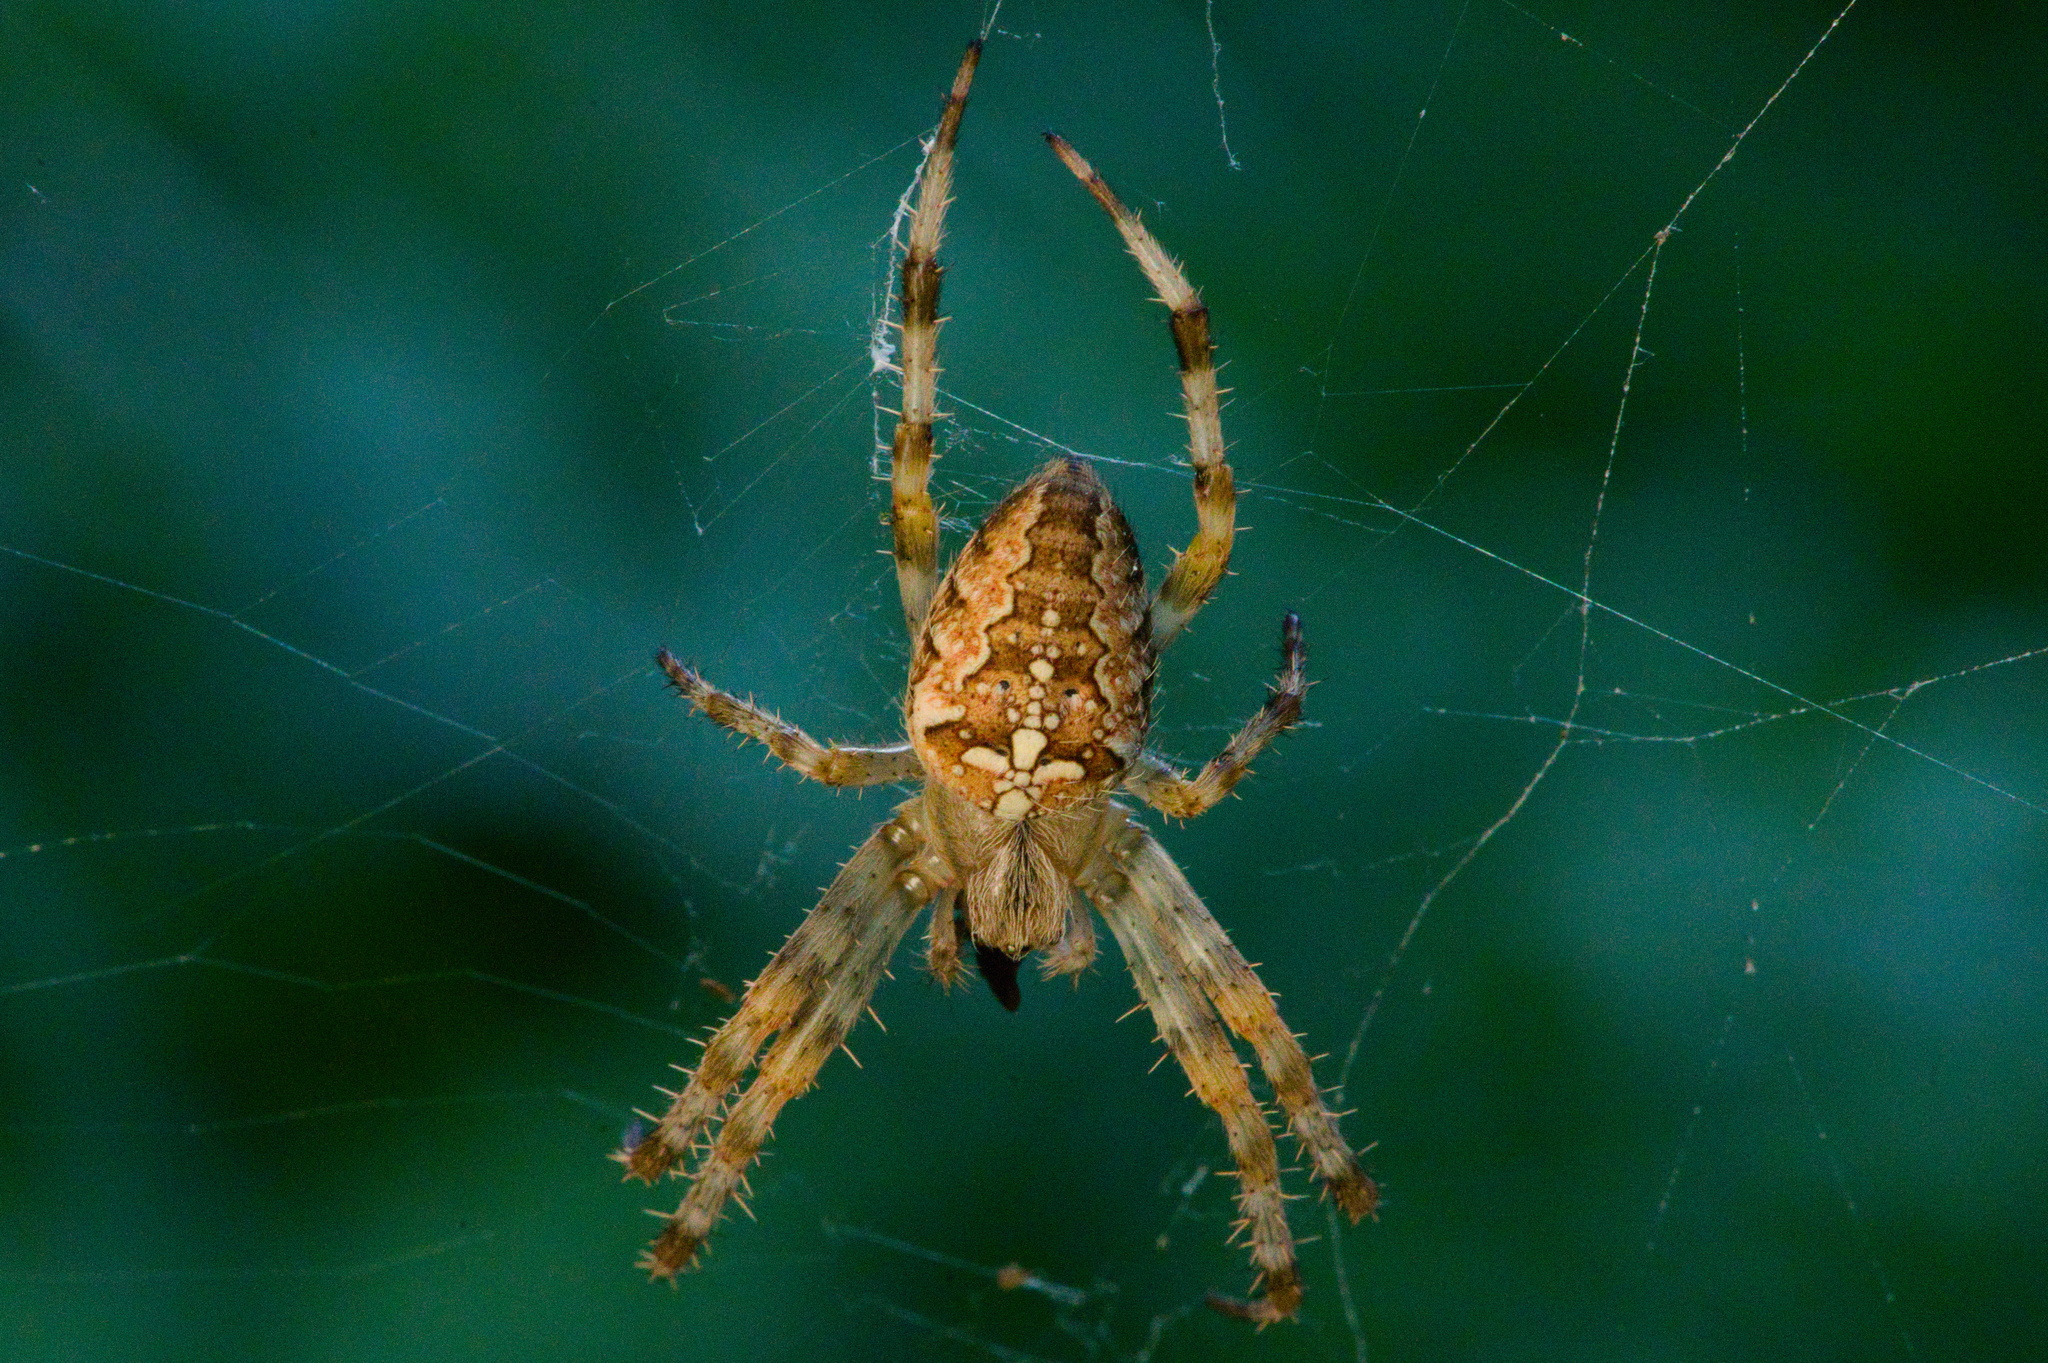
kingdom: Animalia
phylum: Arthropoda
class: Arachnida
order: Araneae
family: Araneidae
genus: Araneus
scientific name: Araneus diadematus
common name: Cross orbweaver
